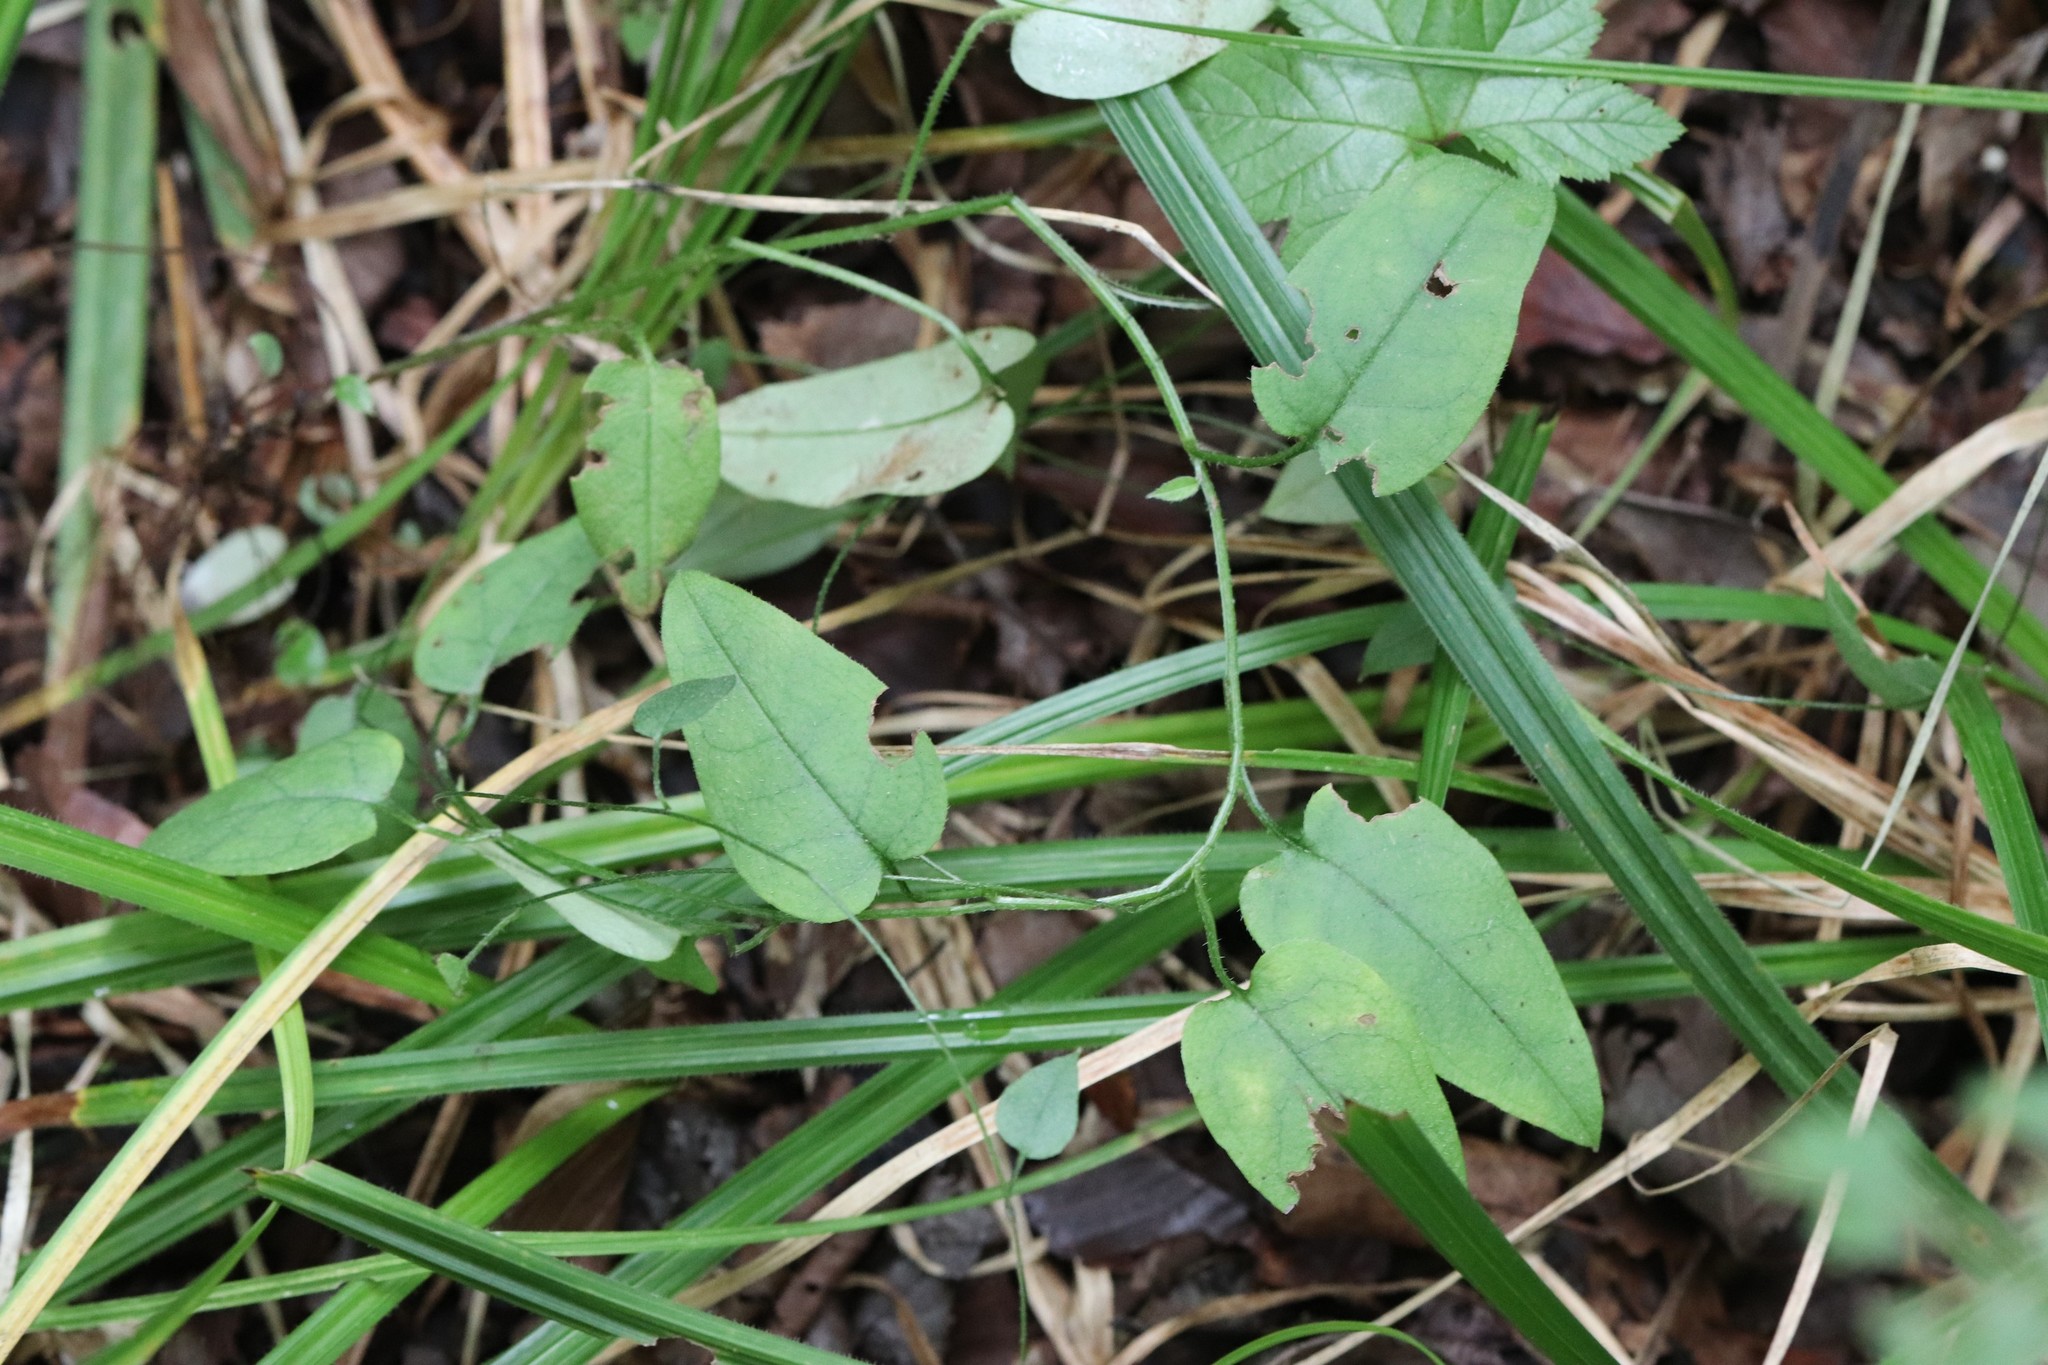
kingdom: Plantae
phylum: Tracheophyta
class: Magnoliopsida
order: Boraginales
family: Boraginaceae
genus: Trigonotis
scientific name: Trigonotis radicans
